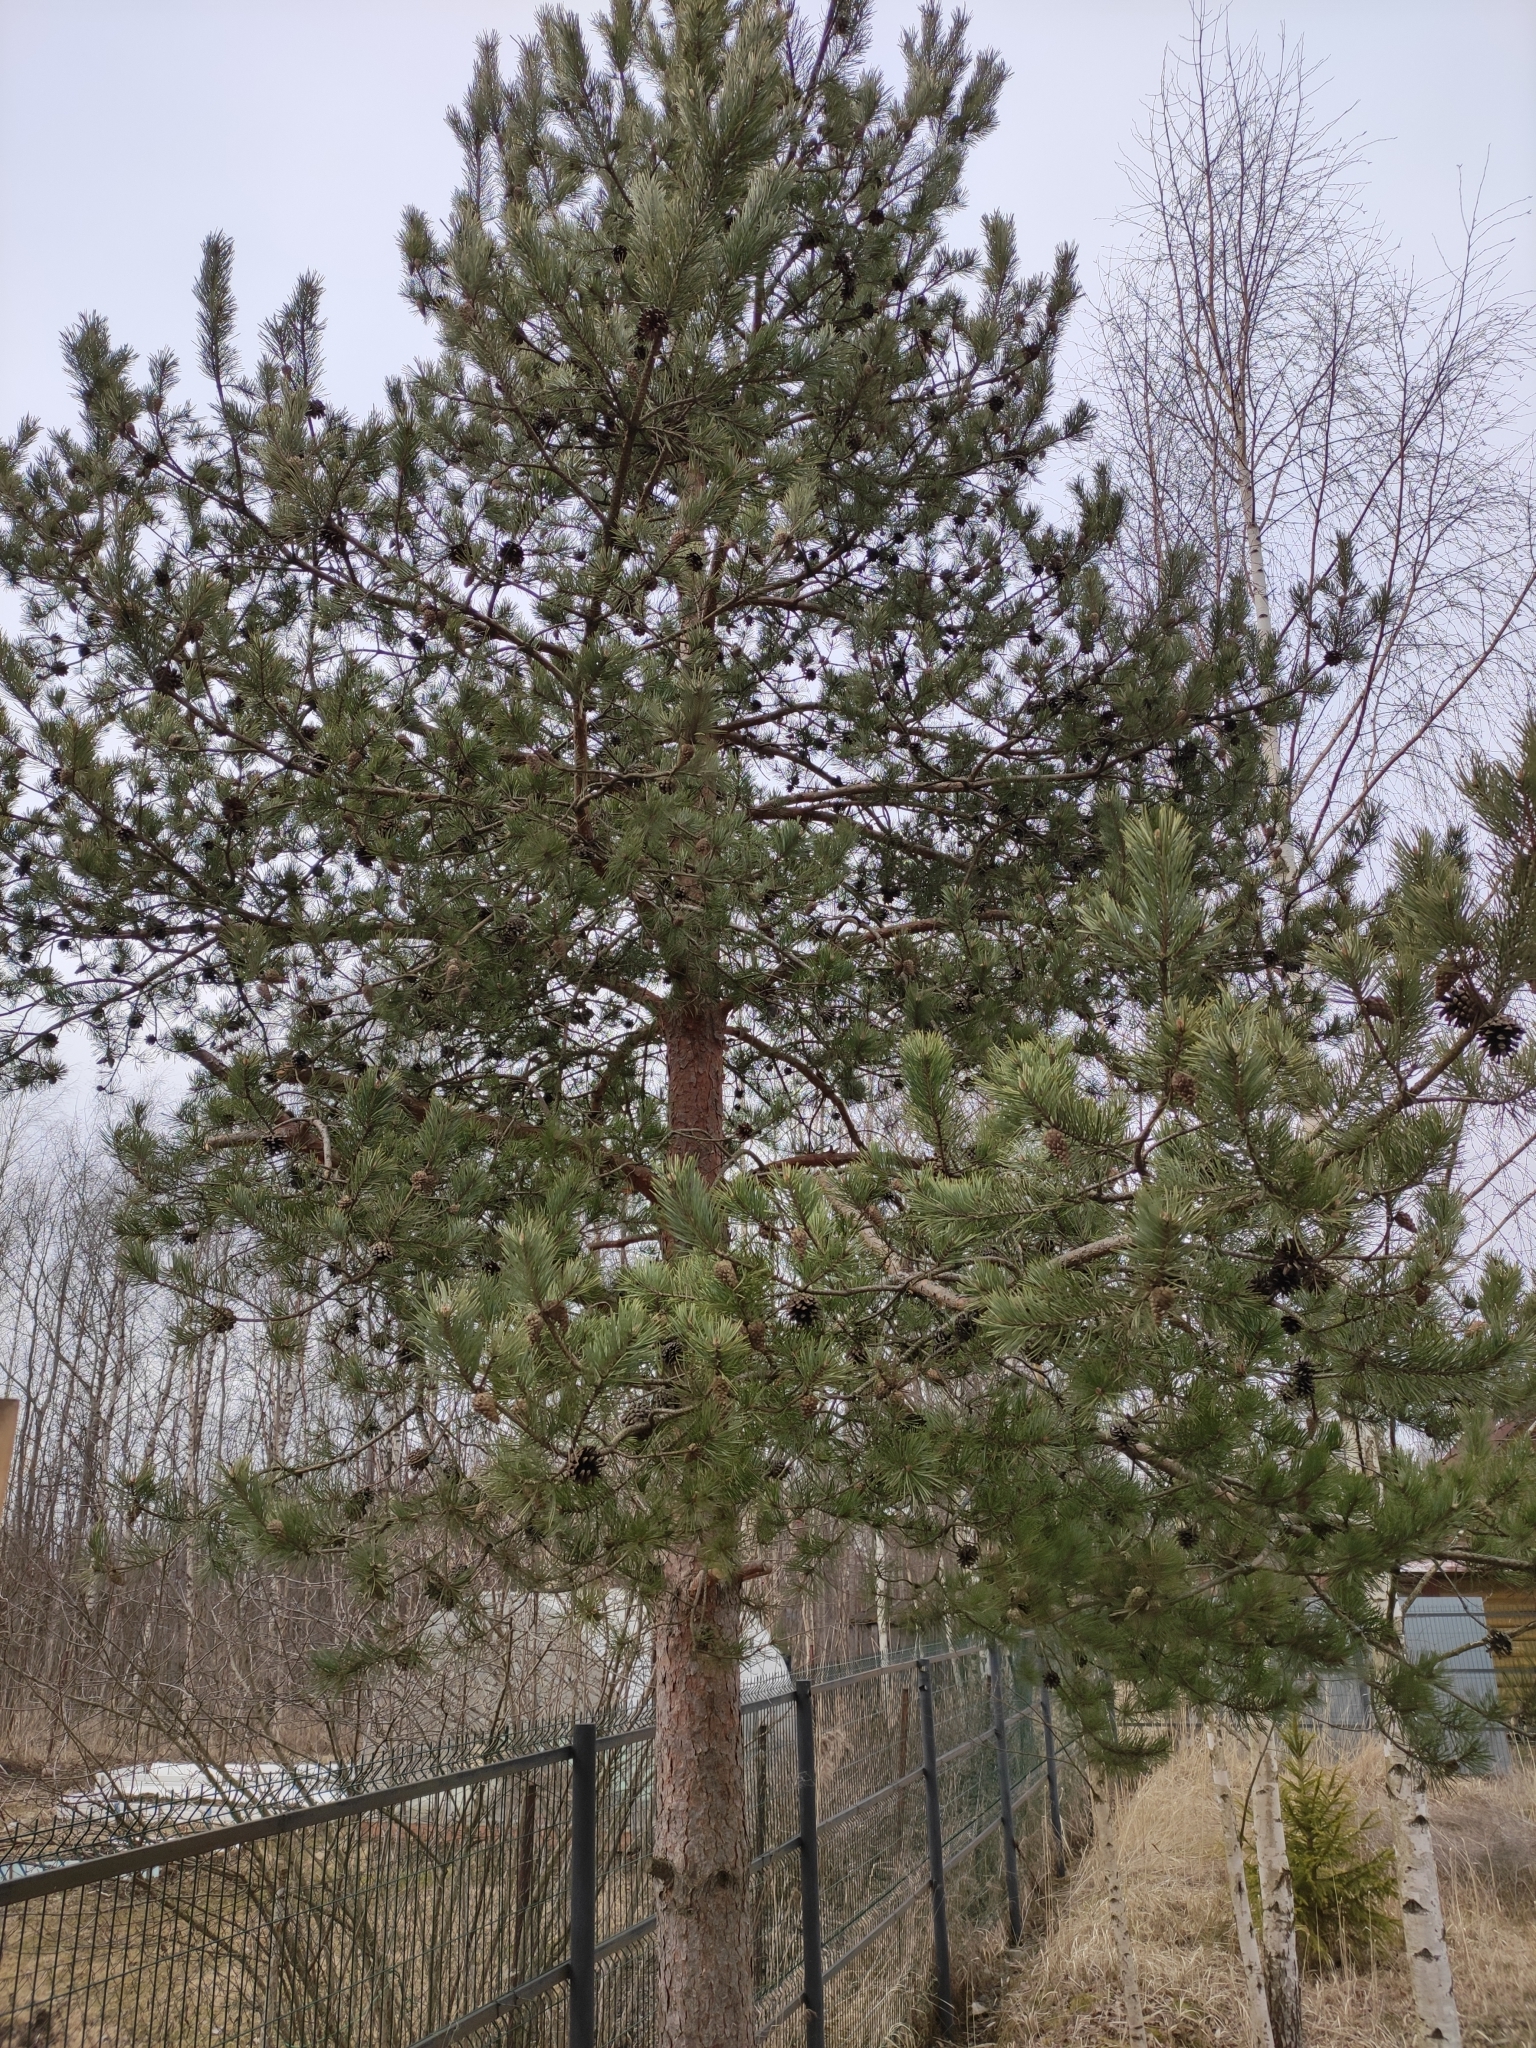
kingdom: Plantae
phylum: Tracheophyta
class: Pinopsida
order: Pinales
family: Pinaceae
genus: Pinus
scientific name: Pinus sylvestris
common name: Scots pine
